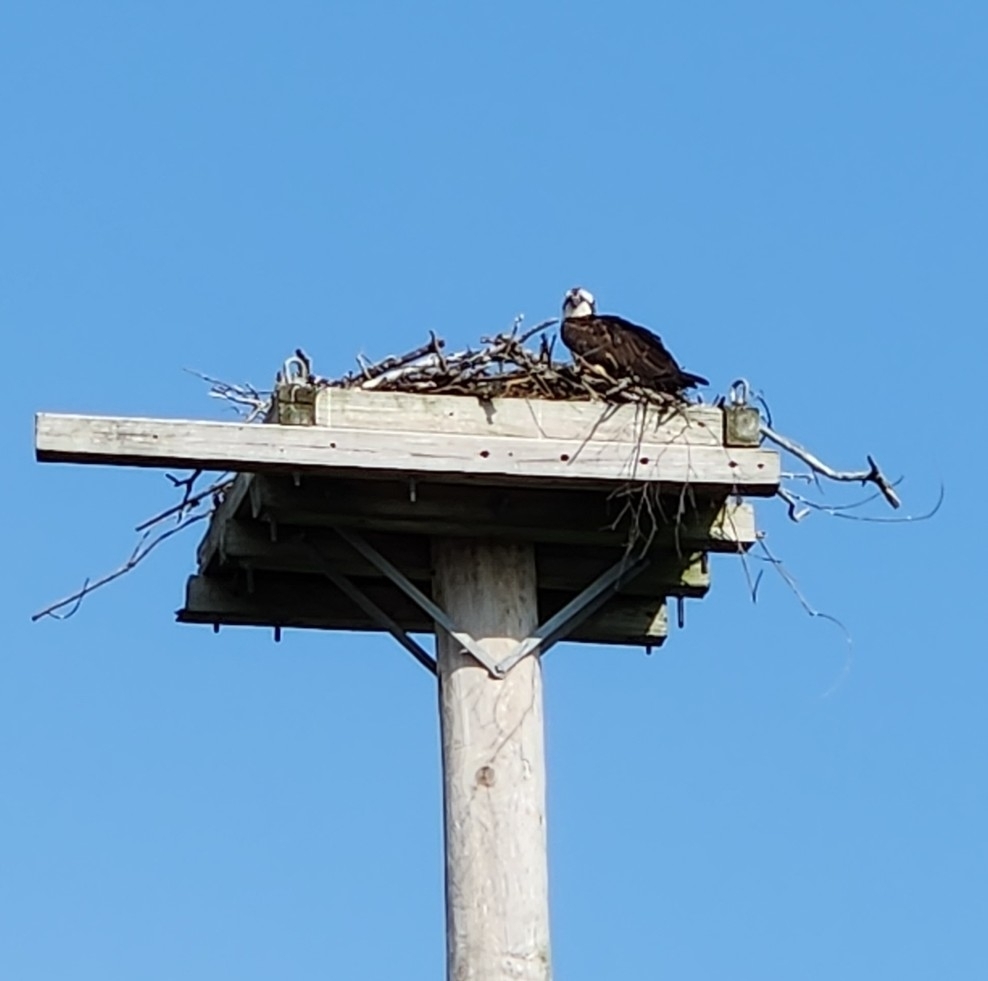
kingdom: Animalia
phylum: Chordata
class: Aves
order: Accipitriformes
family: Pandionidae
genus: Pandion
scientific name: Pandion haliaetus
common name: Osprey
